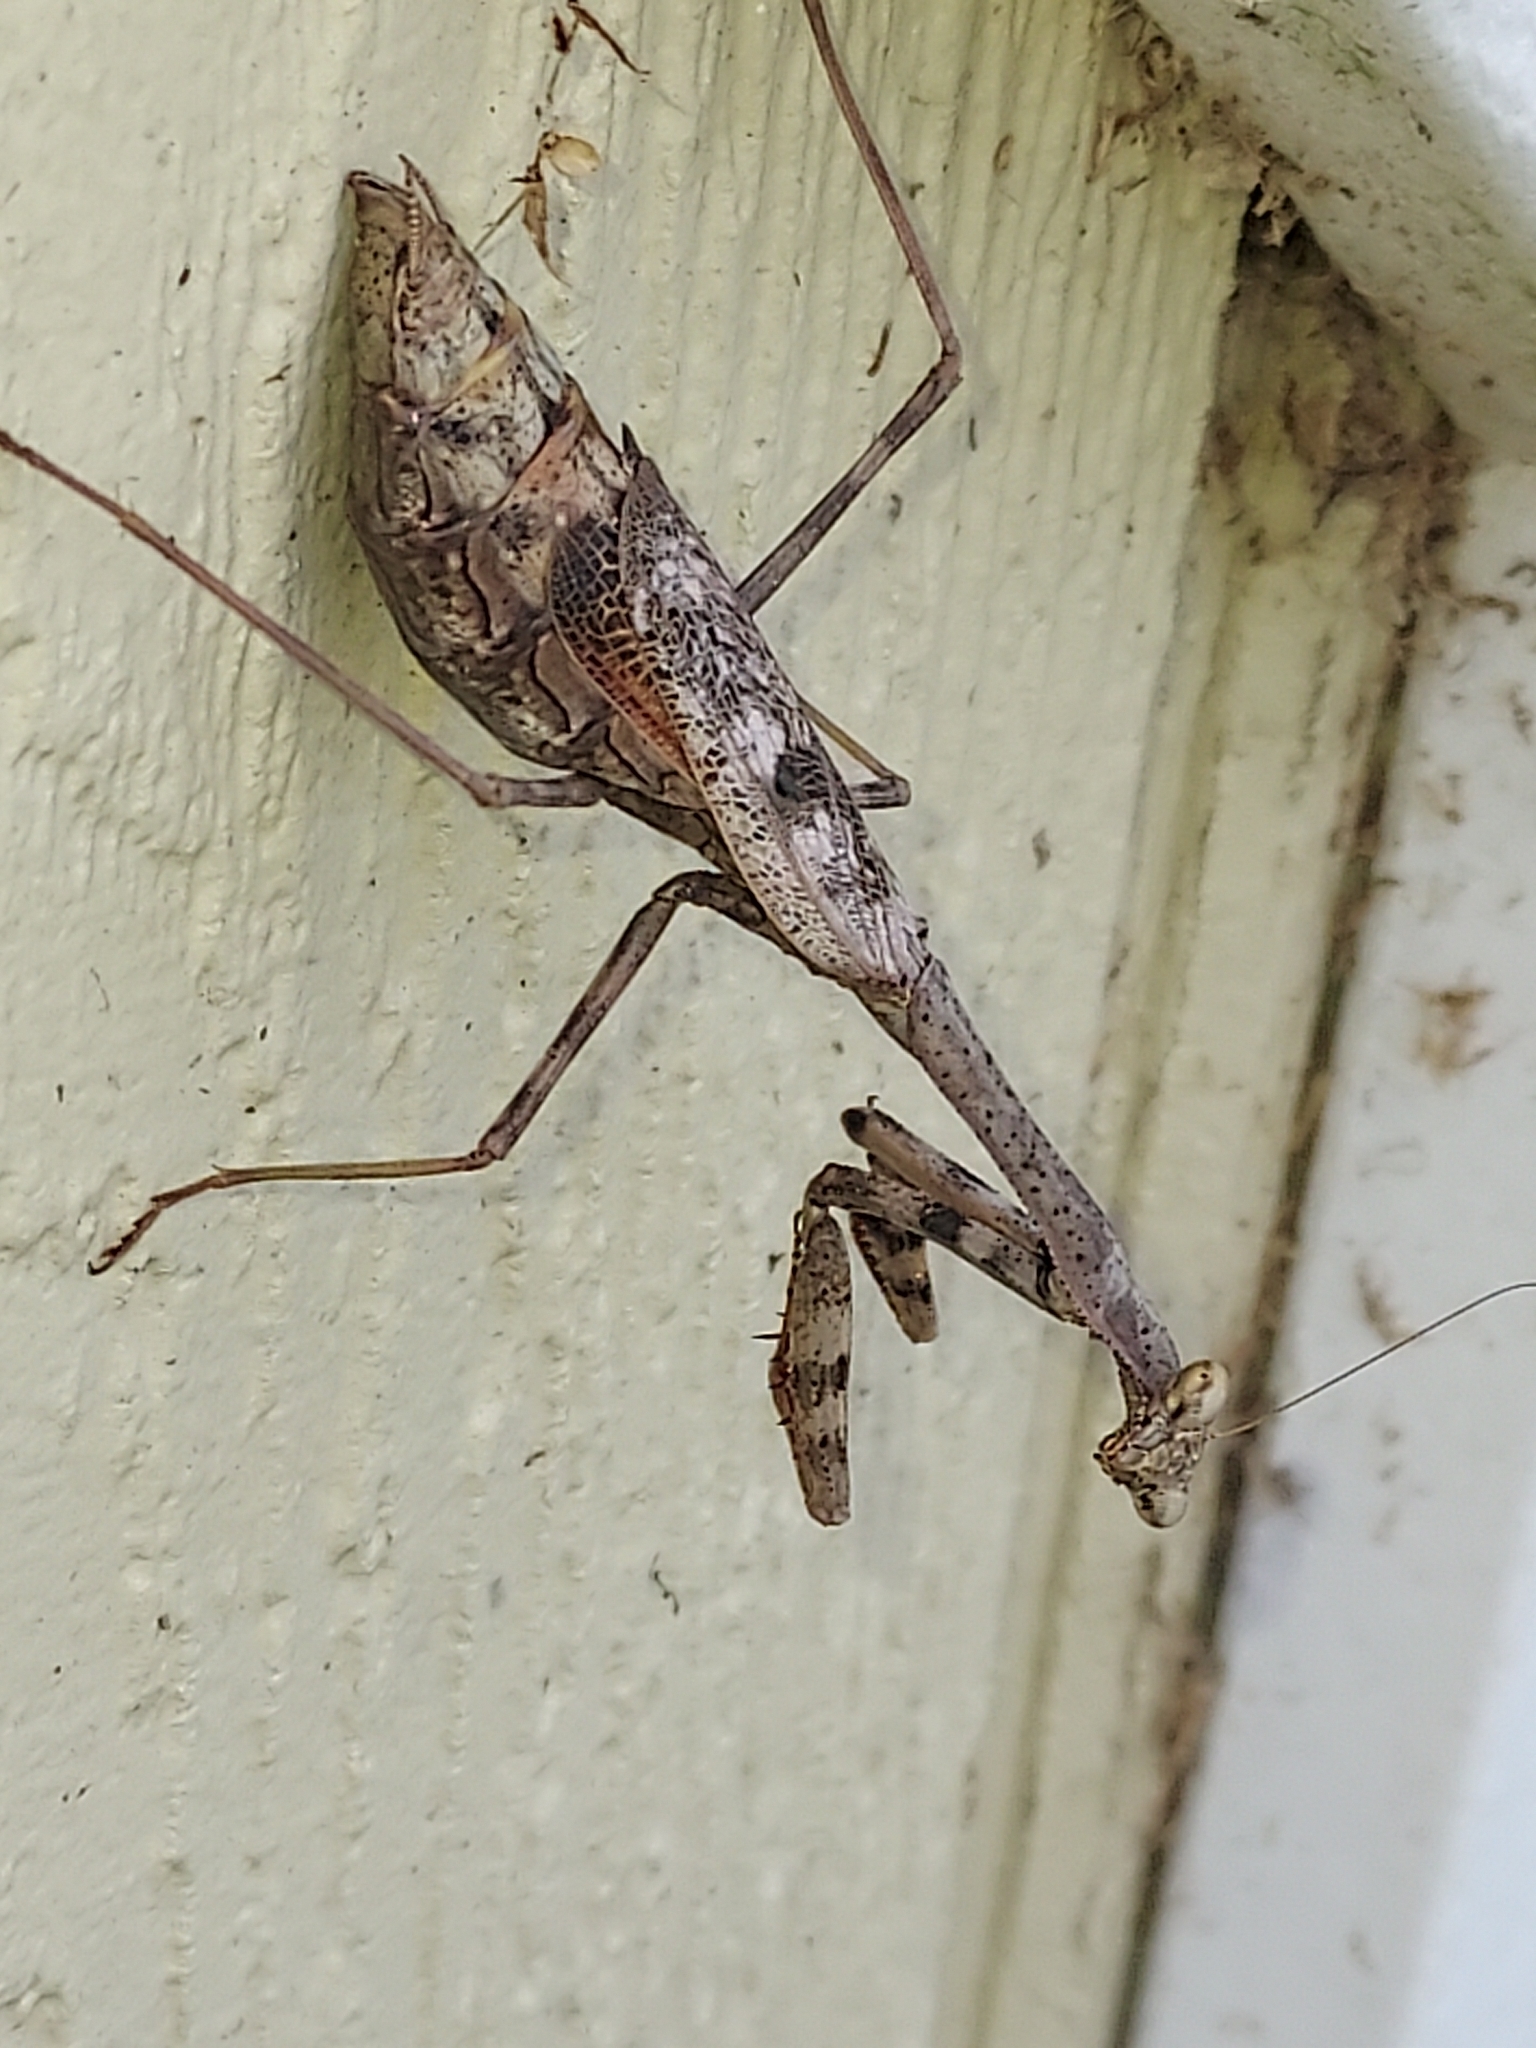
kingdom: Animalia
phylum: Arthropoda
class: Insecta
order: Mantodea
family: Mantidae
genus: Stagmomantis
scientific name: Stagmomantis carolina
